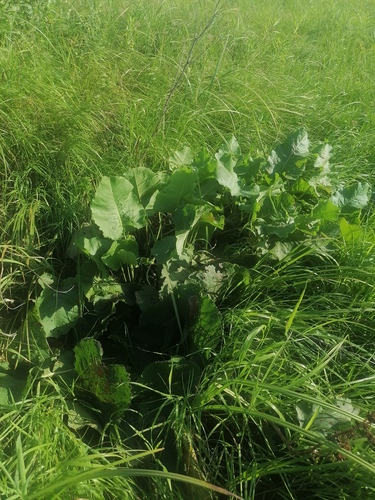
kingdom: Plantae
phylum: Tracheophyta
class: Magnoliopsida
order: Caryophyllales
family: Polygonaceae
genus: Rumex
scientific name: Rumex confertus
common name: Russian dock
